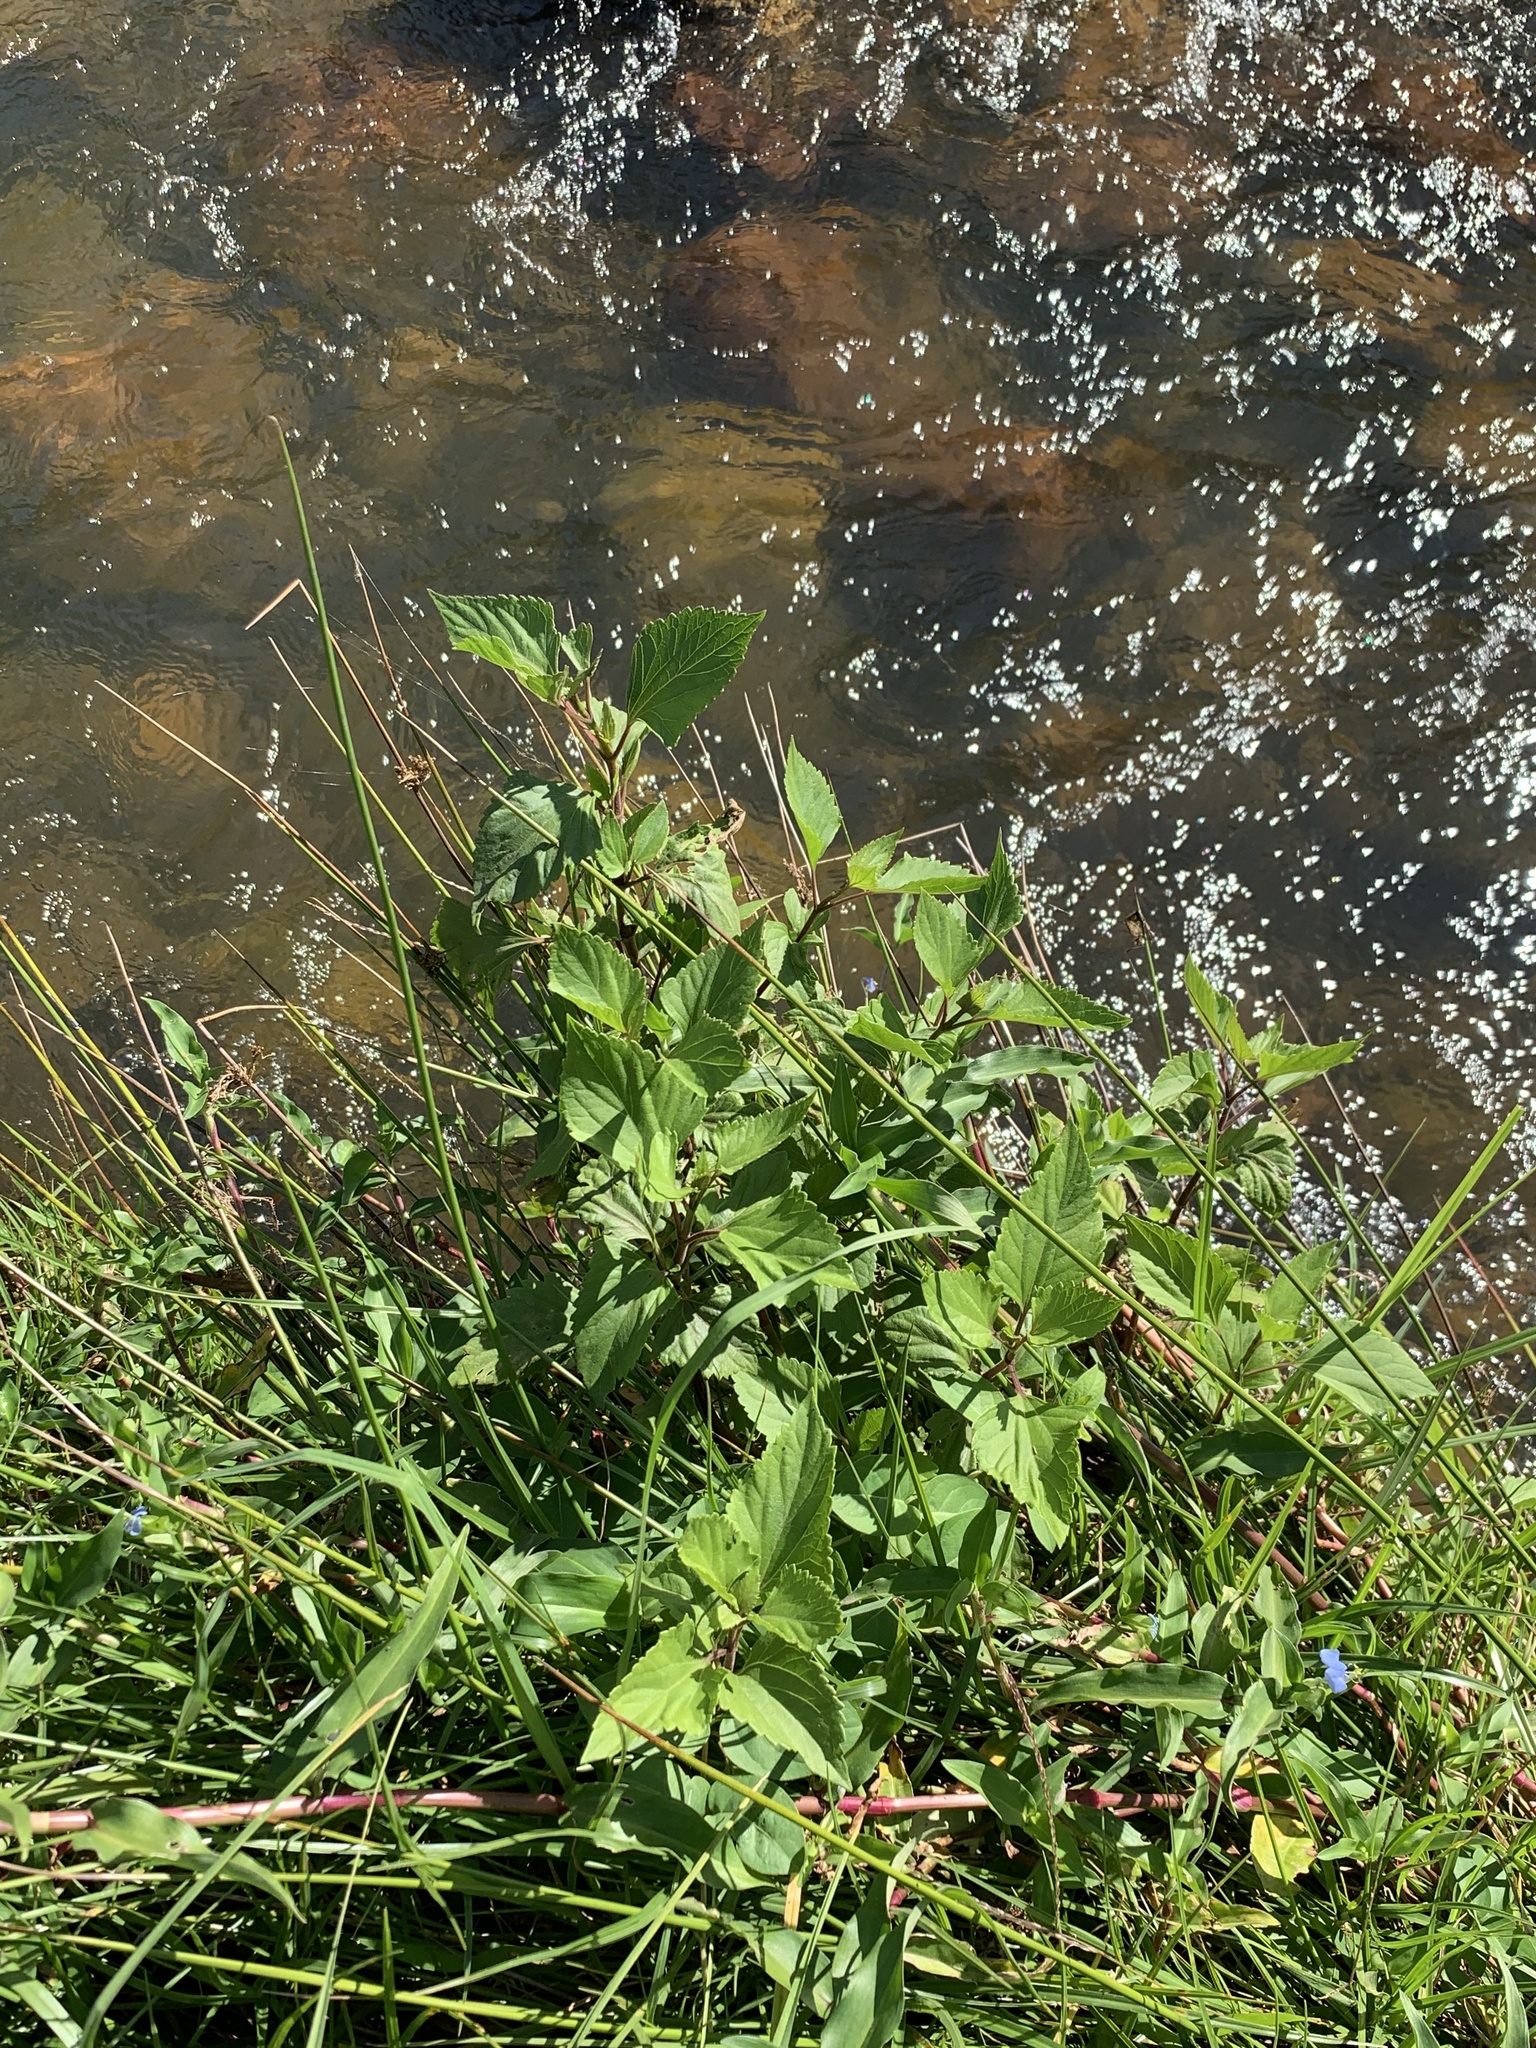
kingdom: Plantae
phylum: Tracheophyta
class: Magnoliopsida
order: Asterales
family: Asteraceae
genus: Ageratina
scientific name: Ageratina adenophora
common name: Sticky snakeroot
